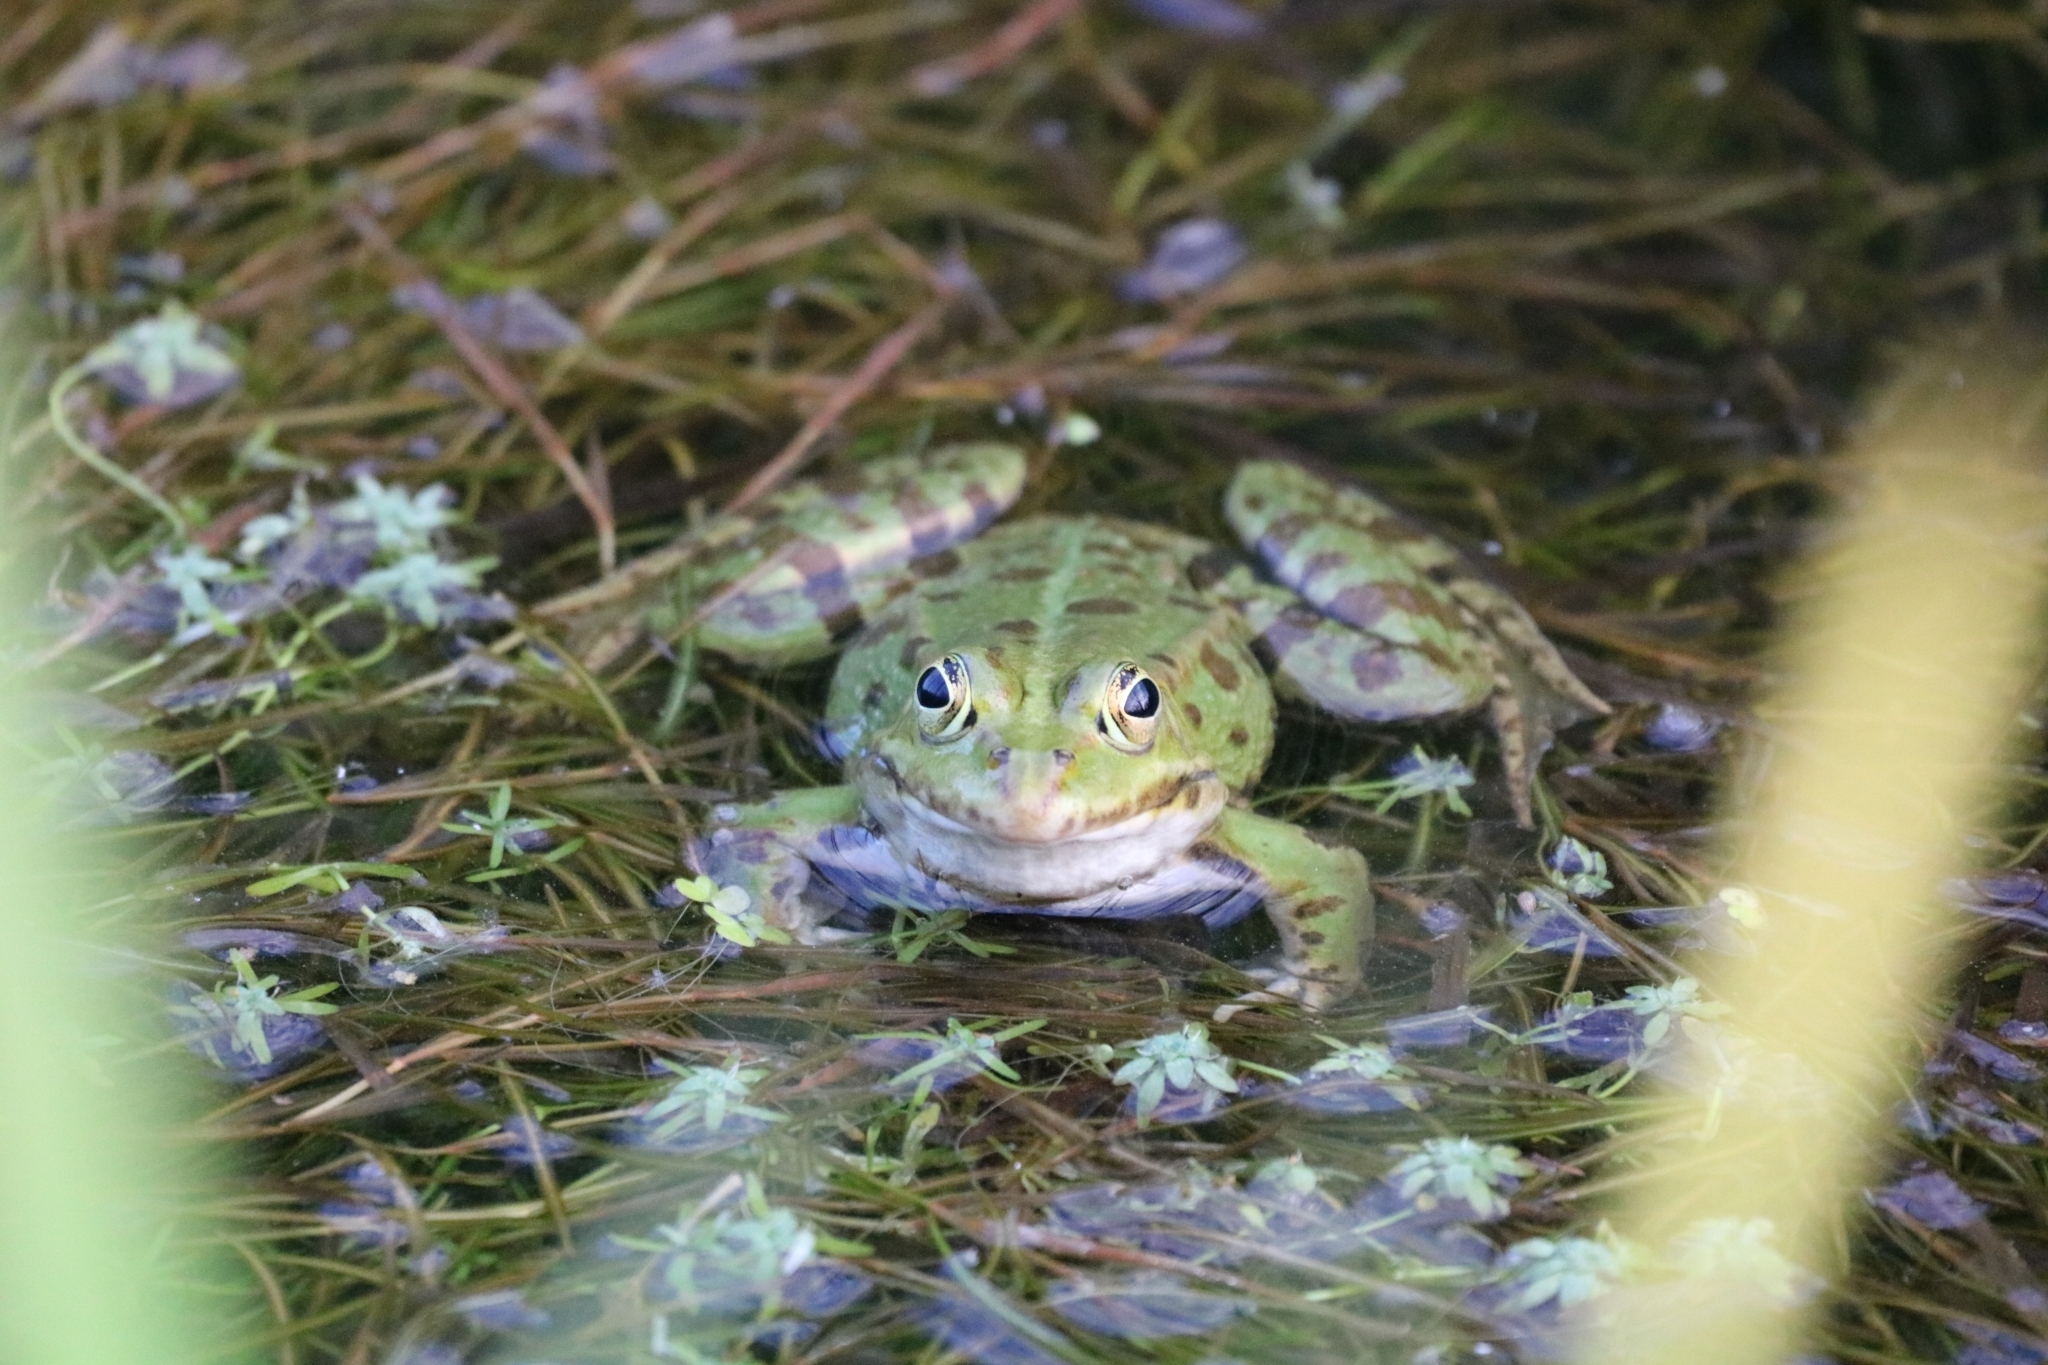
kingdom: Animalia
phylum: Chordata
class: Amphibia
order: Anura
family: Ranidae
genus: Pelophylax
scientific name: Pelophylax
